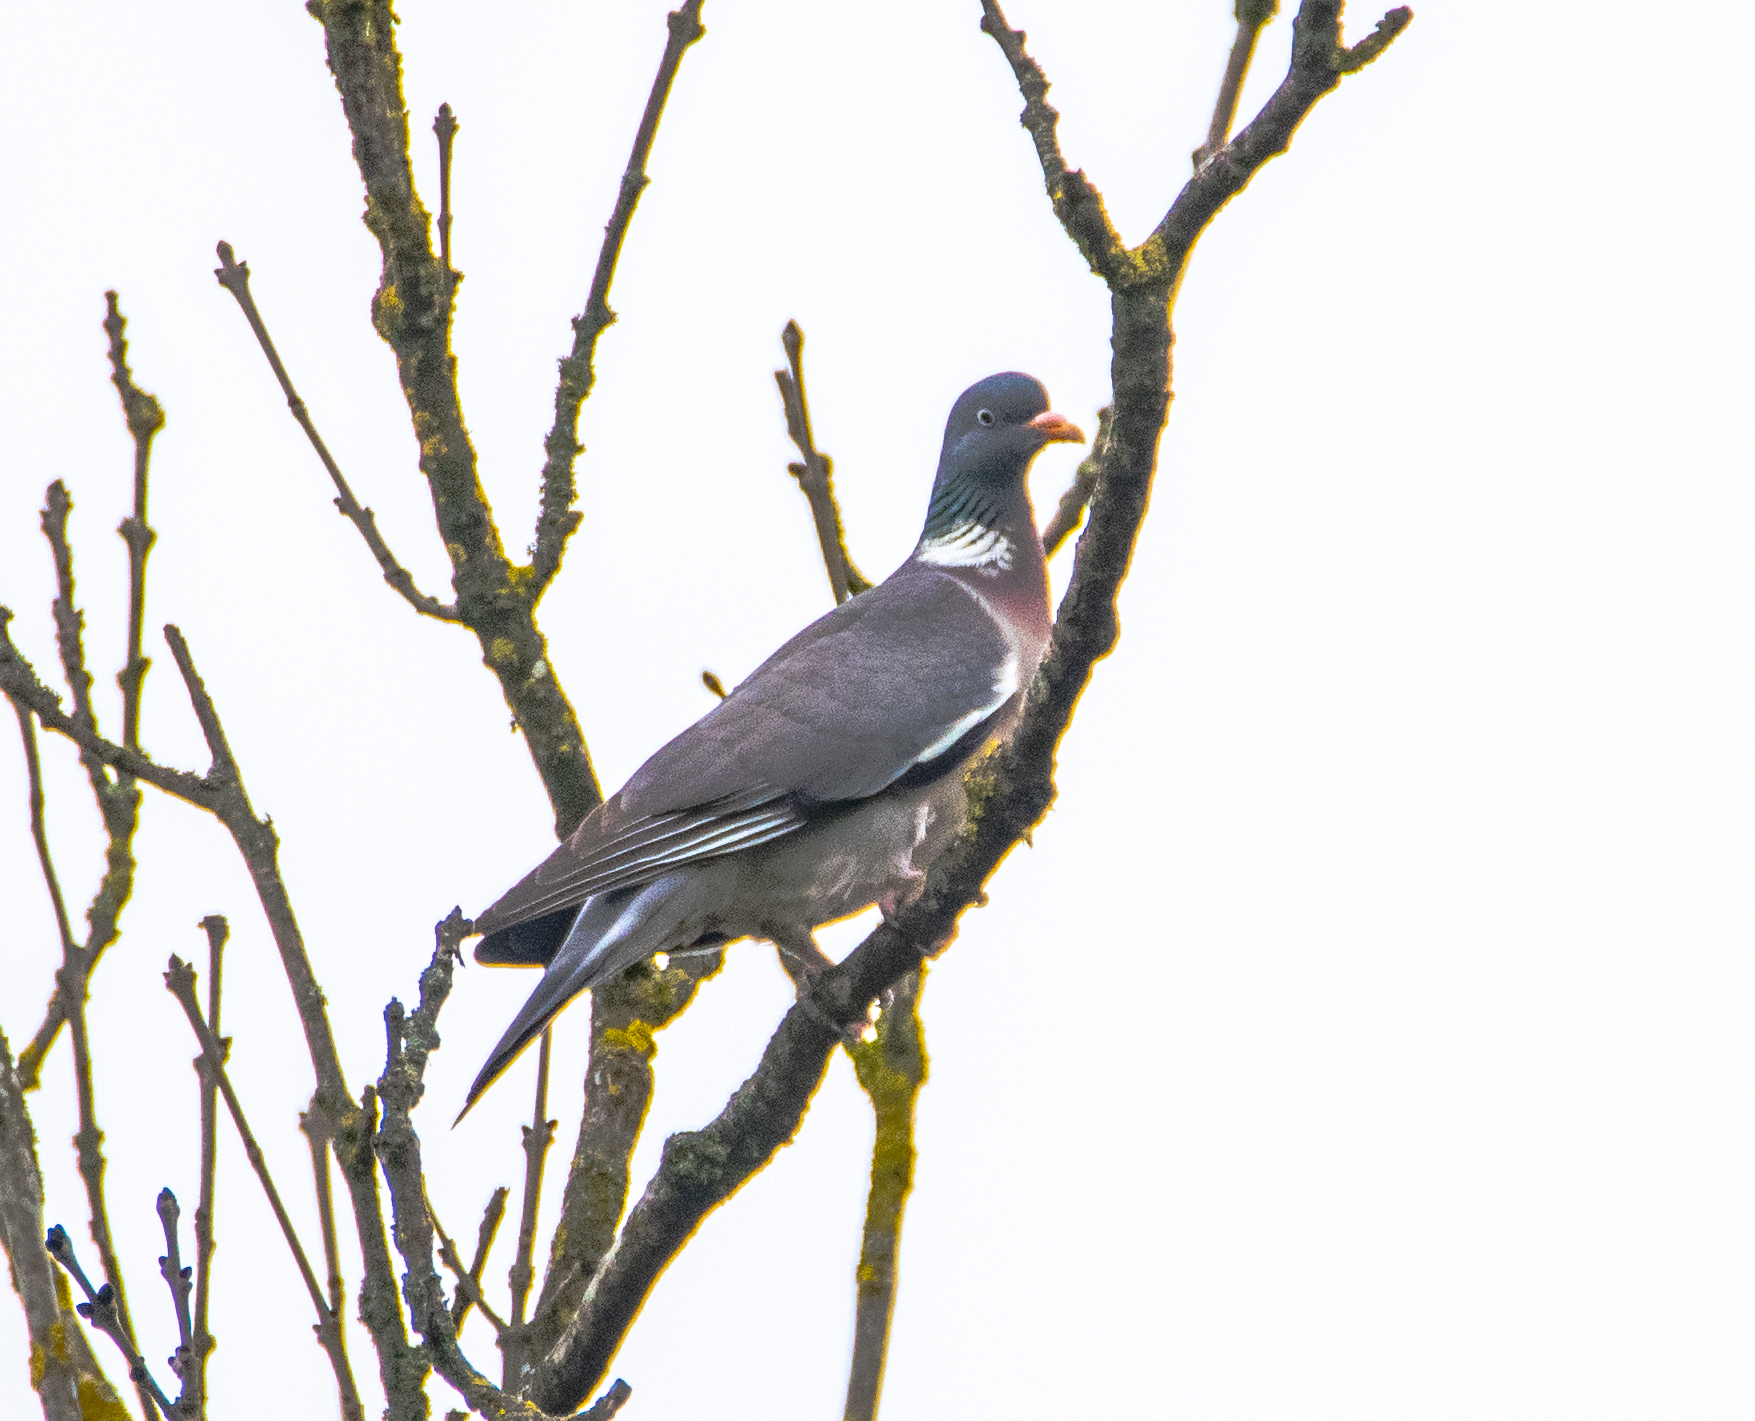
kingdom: Animalia
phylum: Chordata
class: Aves
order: Columbiformes
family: Columbidae
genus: Columba
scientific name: Columba palumbus
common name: Common wood pigeon
